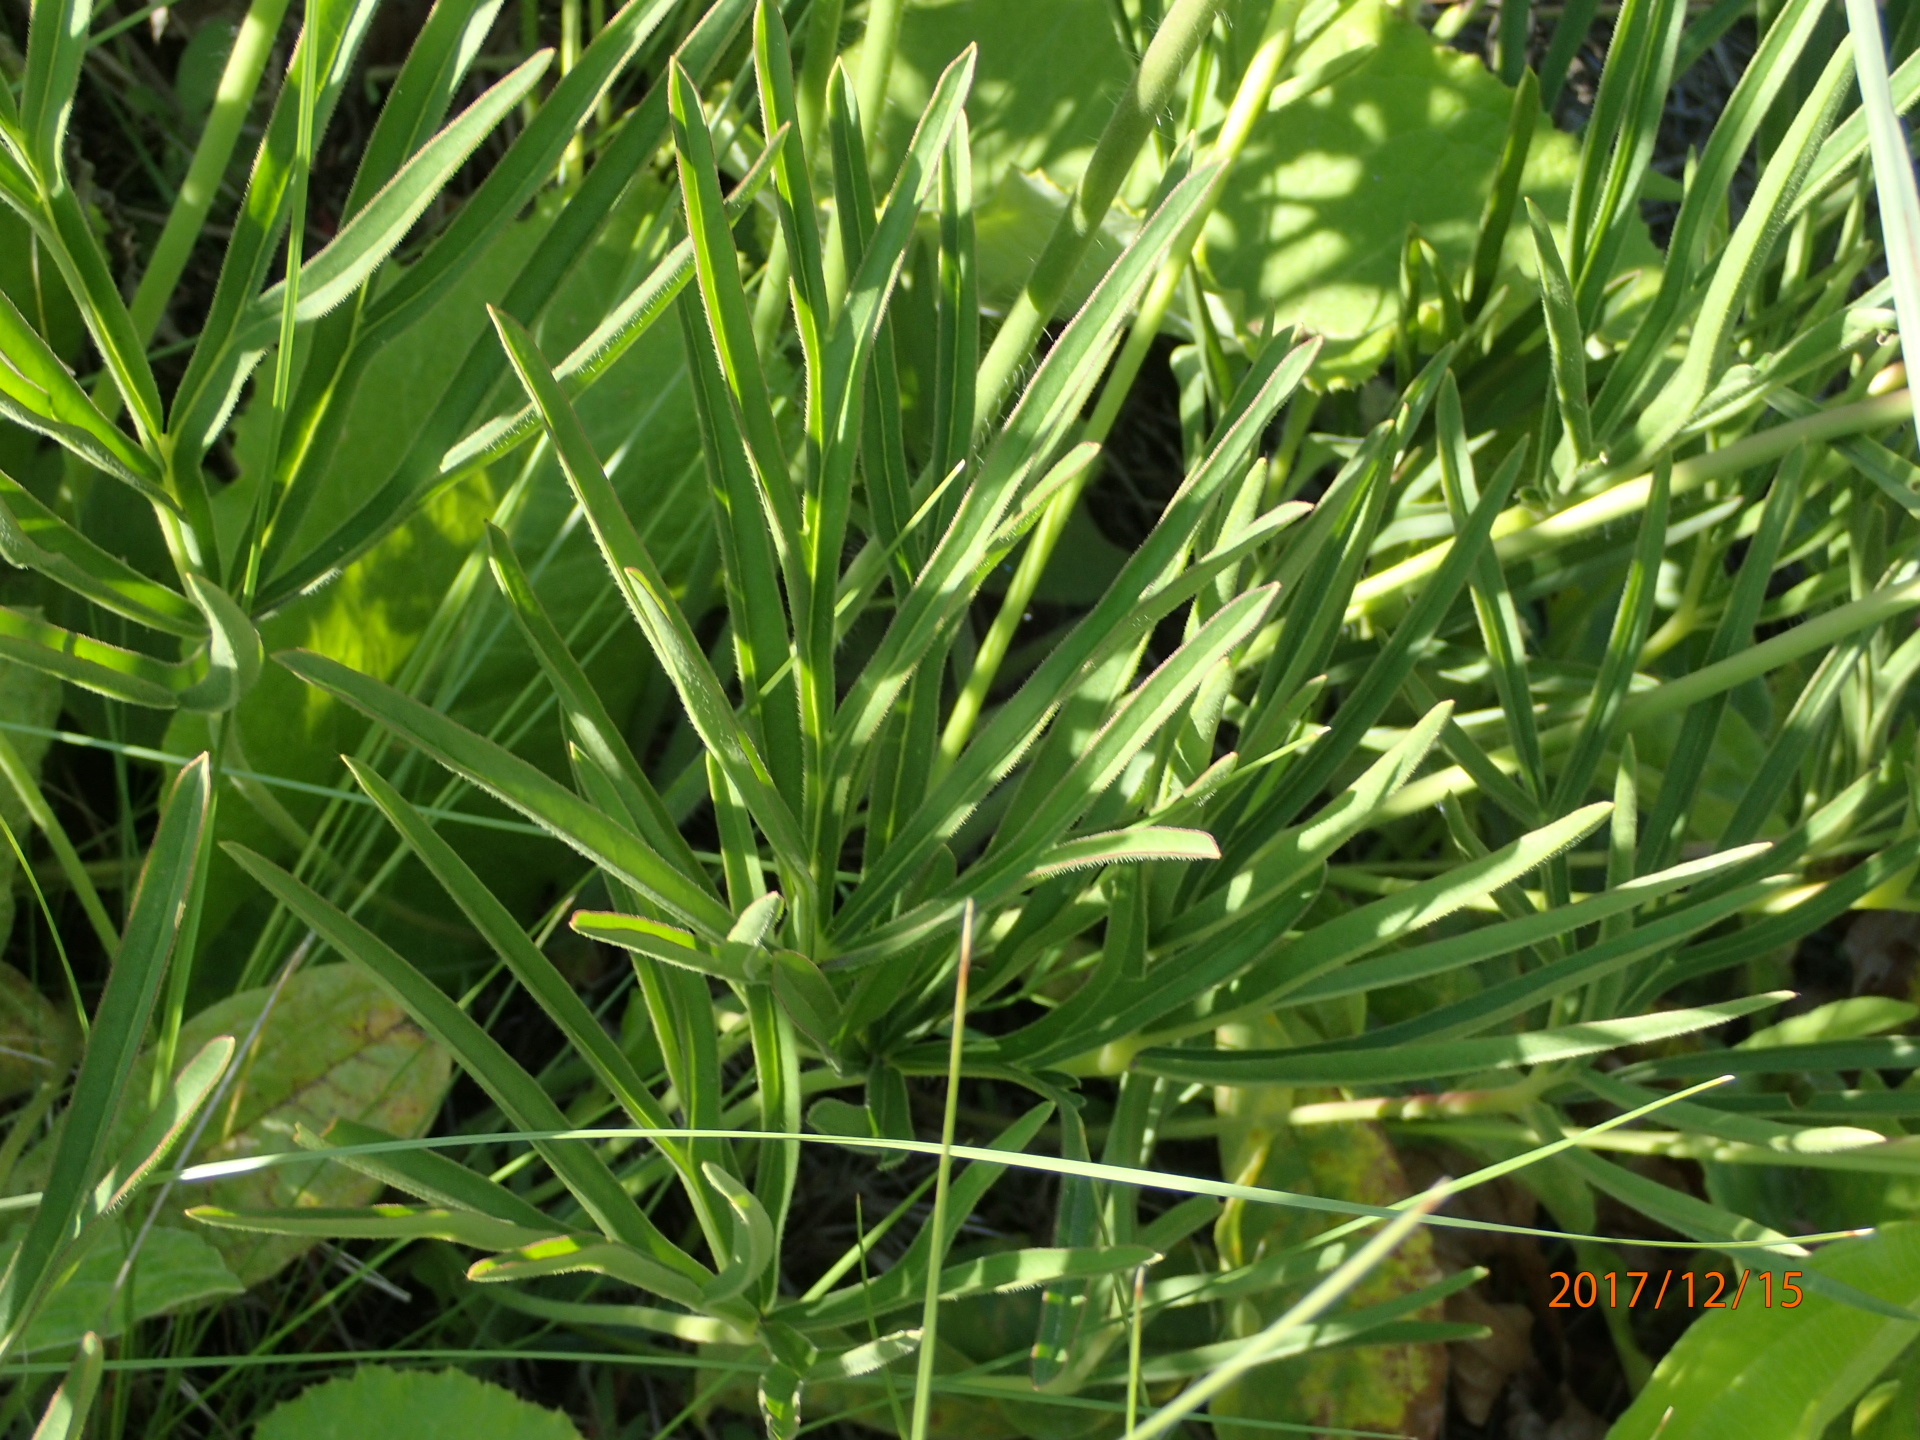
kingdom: Plantae
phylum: Tracheophyta
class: Magnoliopsida
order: Geraniales
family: Geraniaceae
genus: Pelargonium
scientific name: Pelargonium luridum
